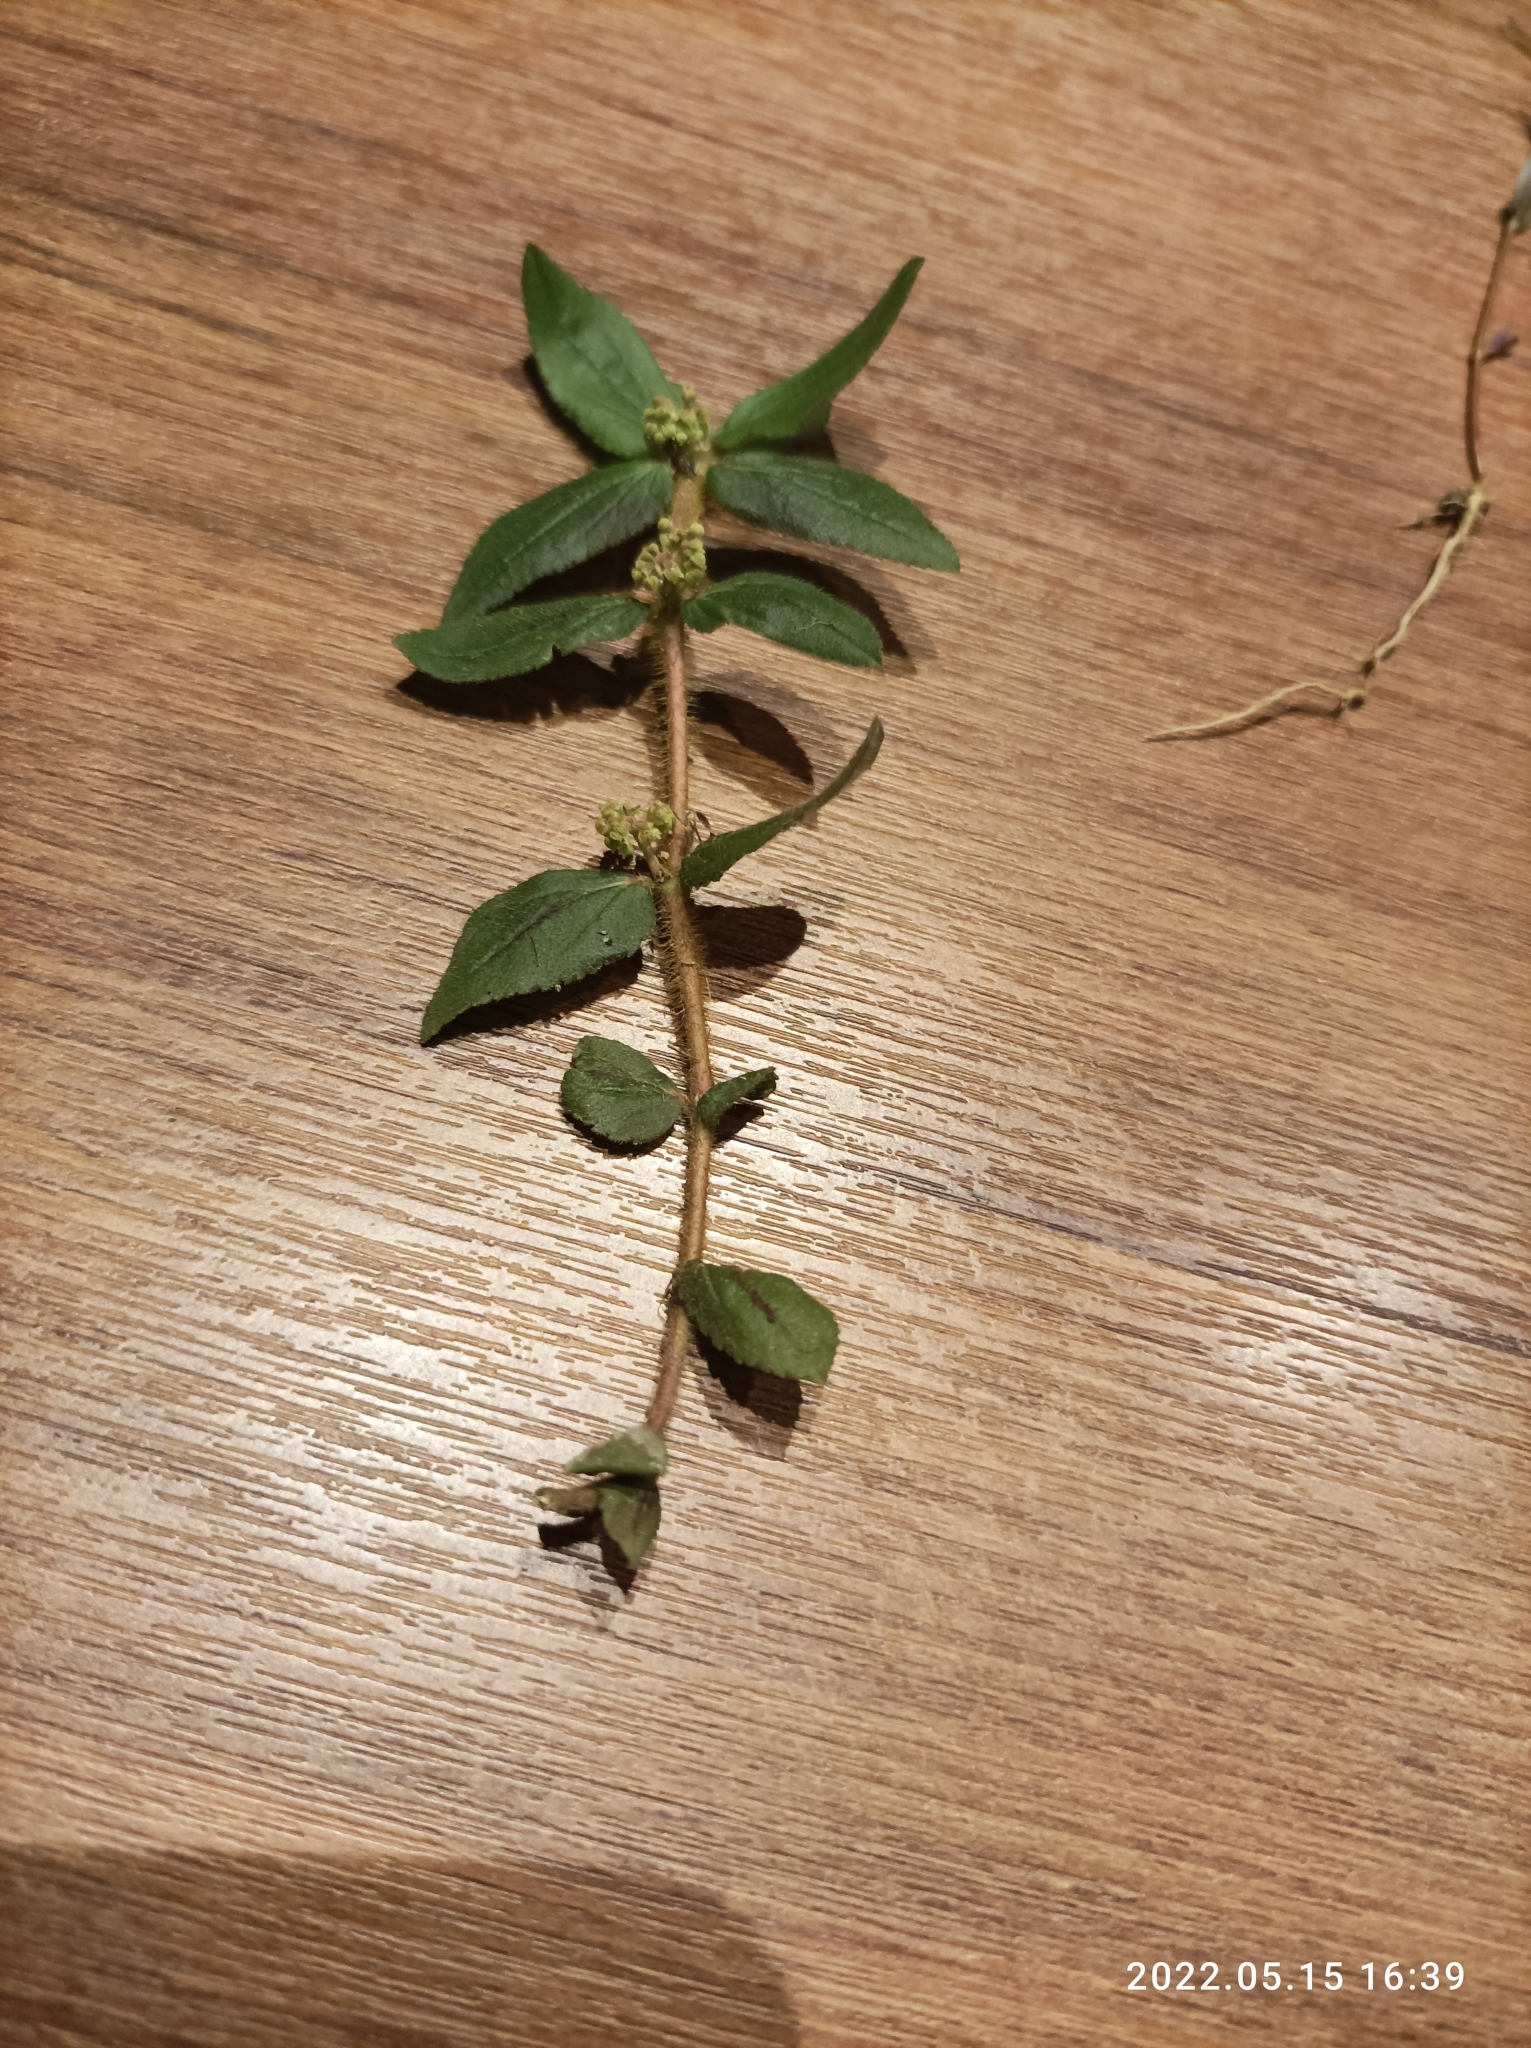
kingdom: Plantae
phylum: Tracheophyta
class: Magnoliopsida
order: Malpighiales
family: Euphorbiaceae
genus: Euphorbia
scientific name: Euphorbia hirta
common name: Pillpod sandmat
